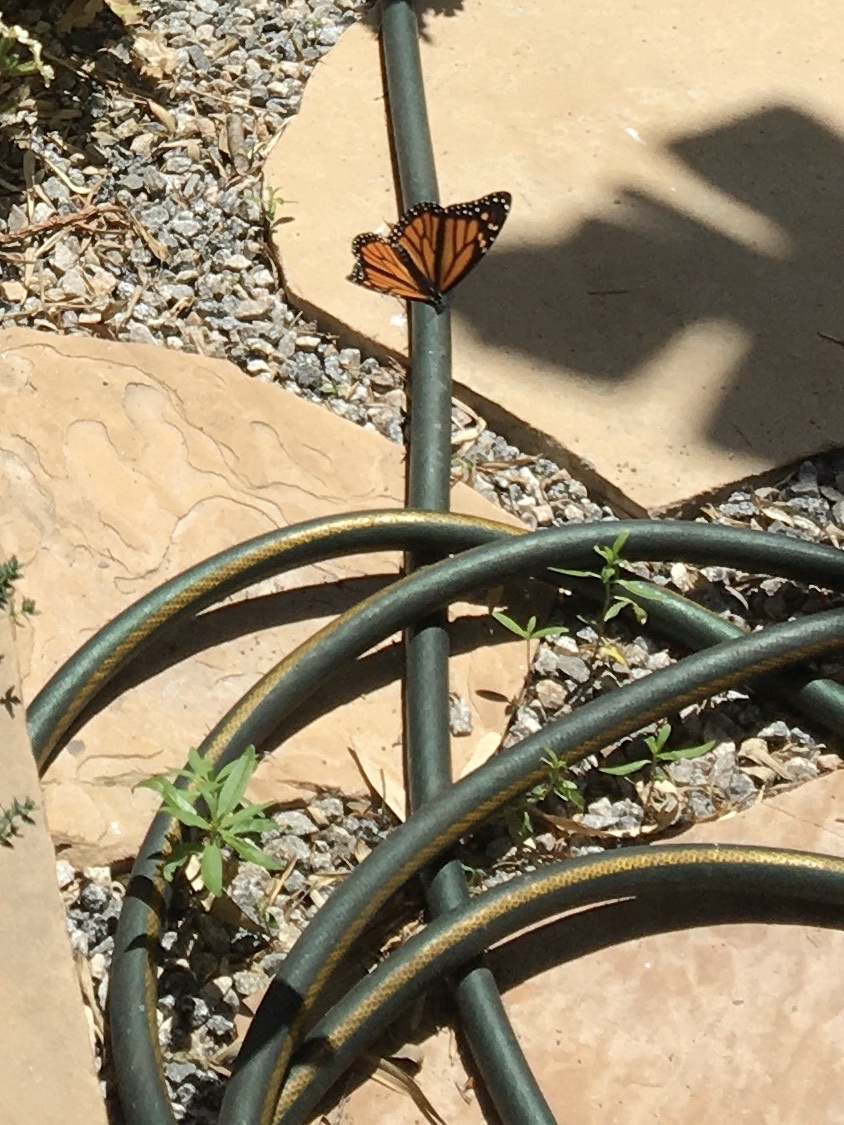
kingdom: Animalia
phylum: Arthropoda
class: Insecta
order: Lepidoptera
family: Nymphalidae
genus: Danaus
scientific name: Danaus plexippus
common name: Monarch
